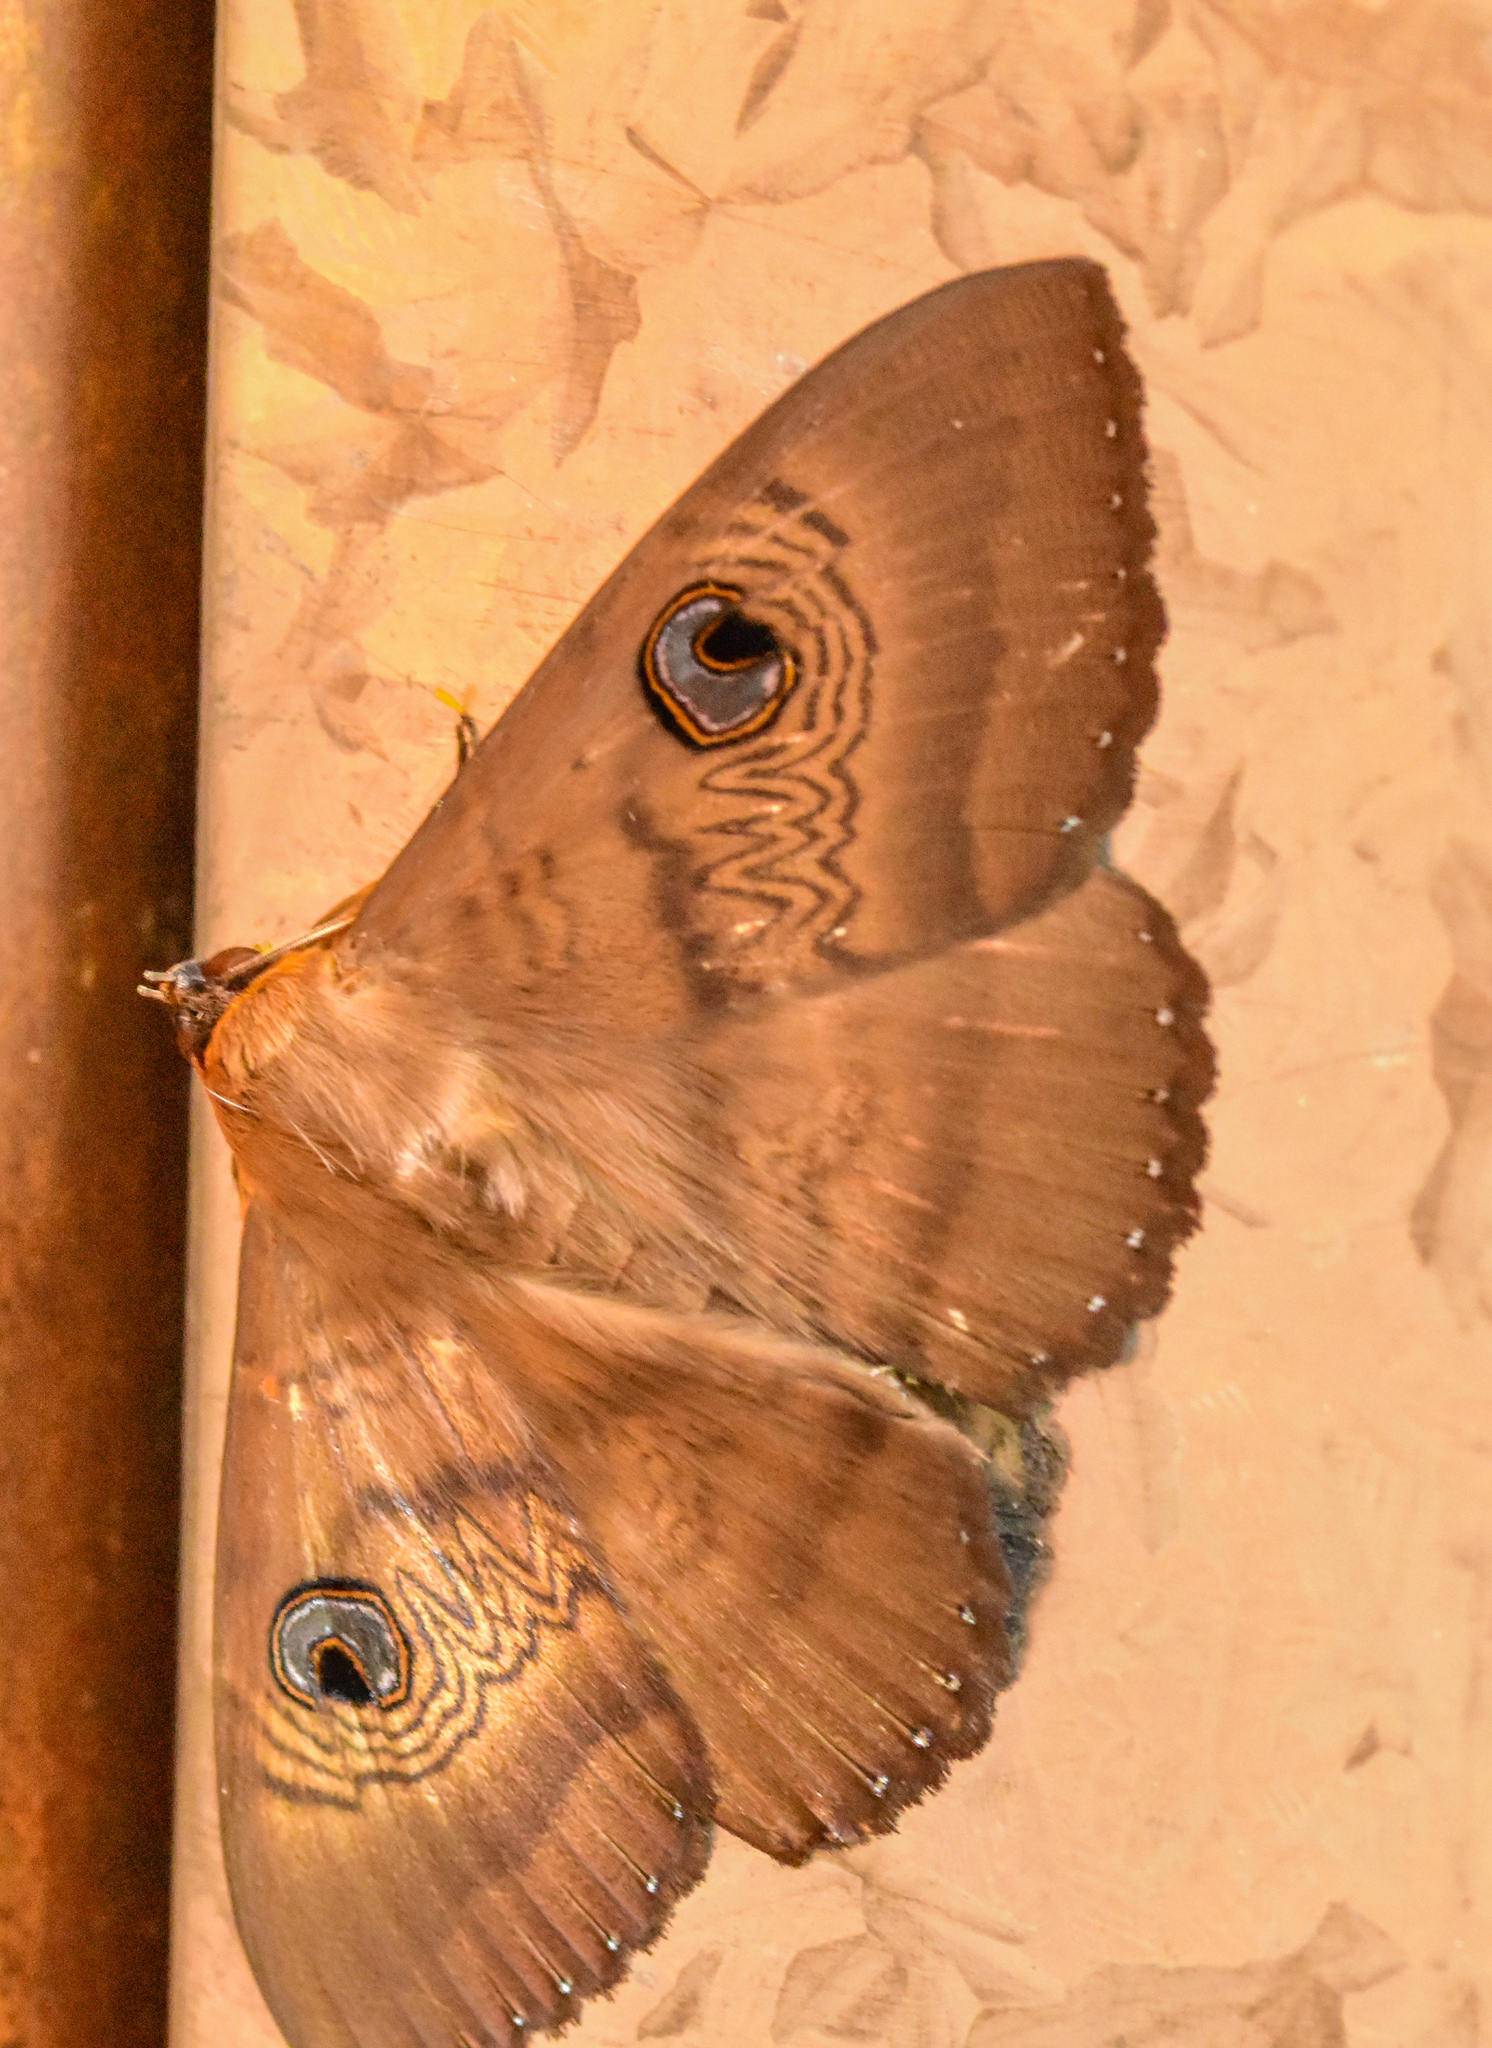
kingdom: Animalia
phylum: Arthropoda
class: Insecta
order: Lepidoptera
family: Erebidae
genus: Dasypodia
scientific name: Dasypodia selenophora
